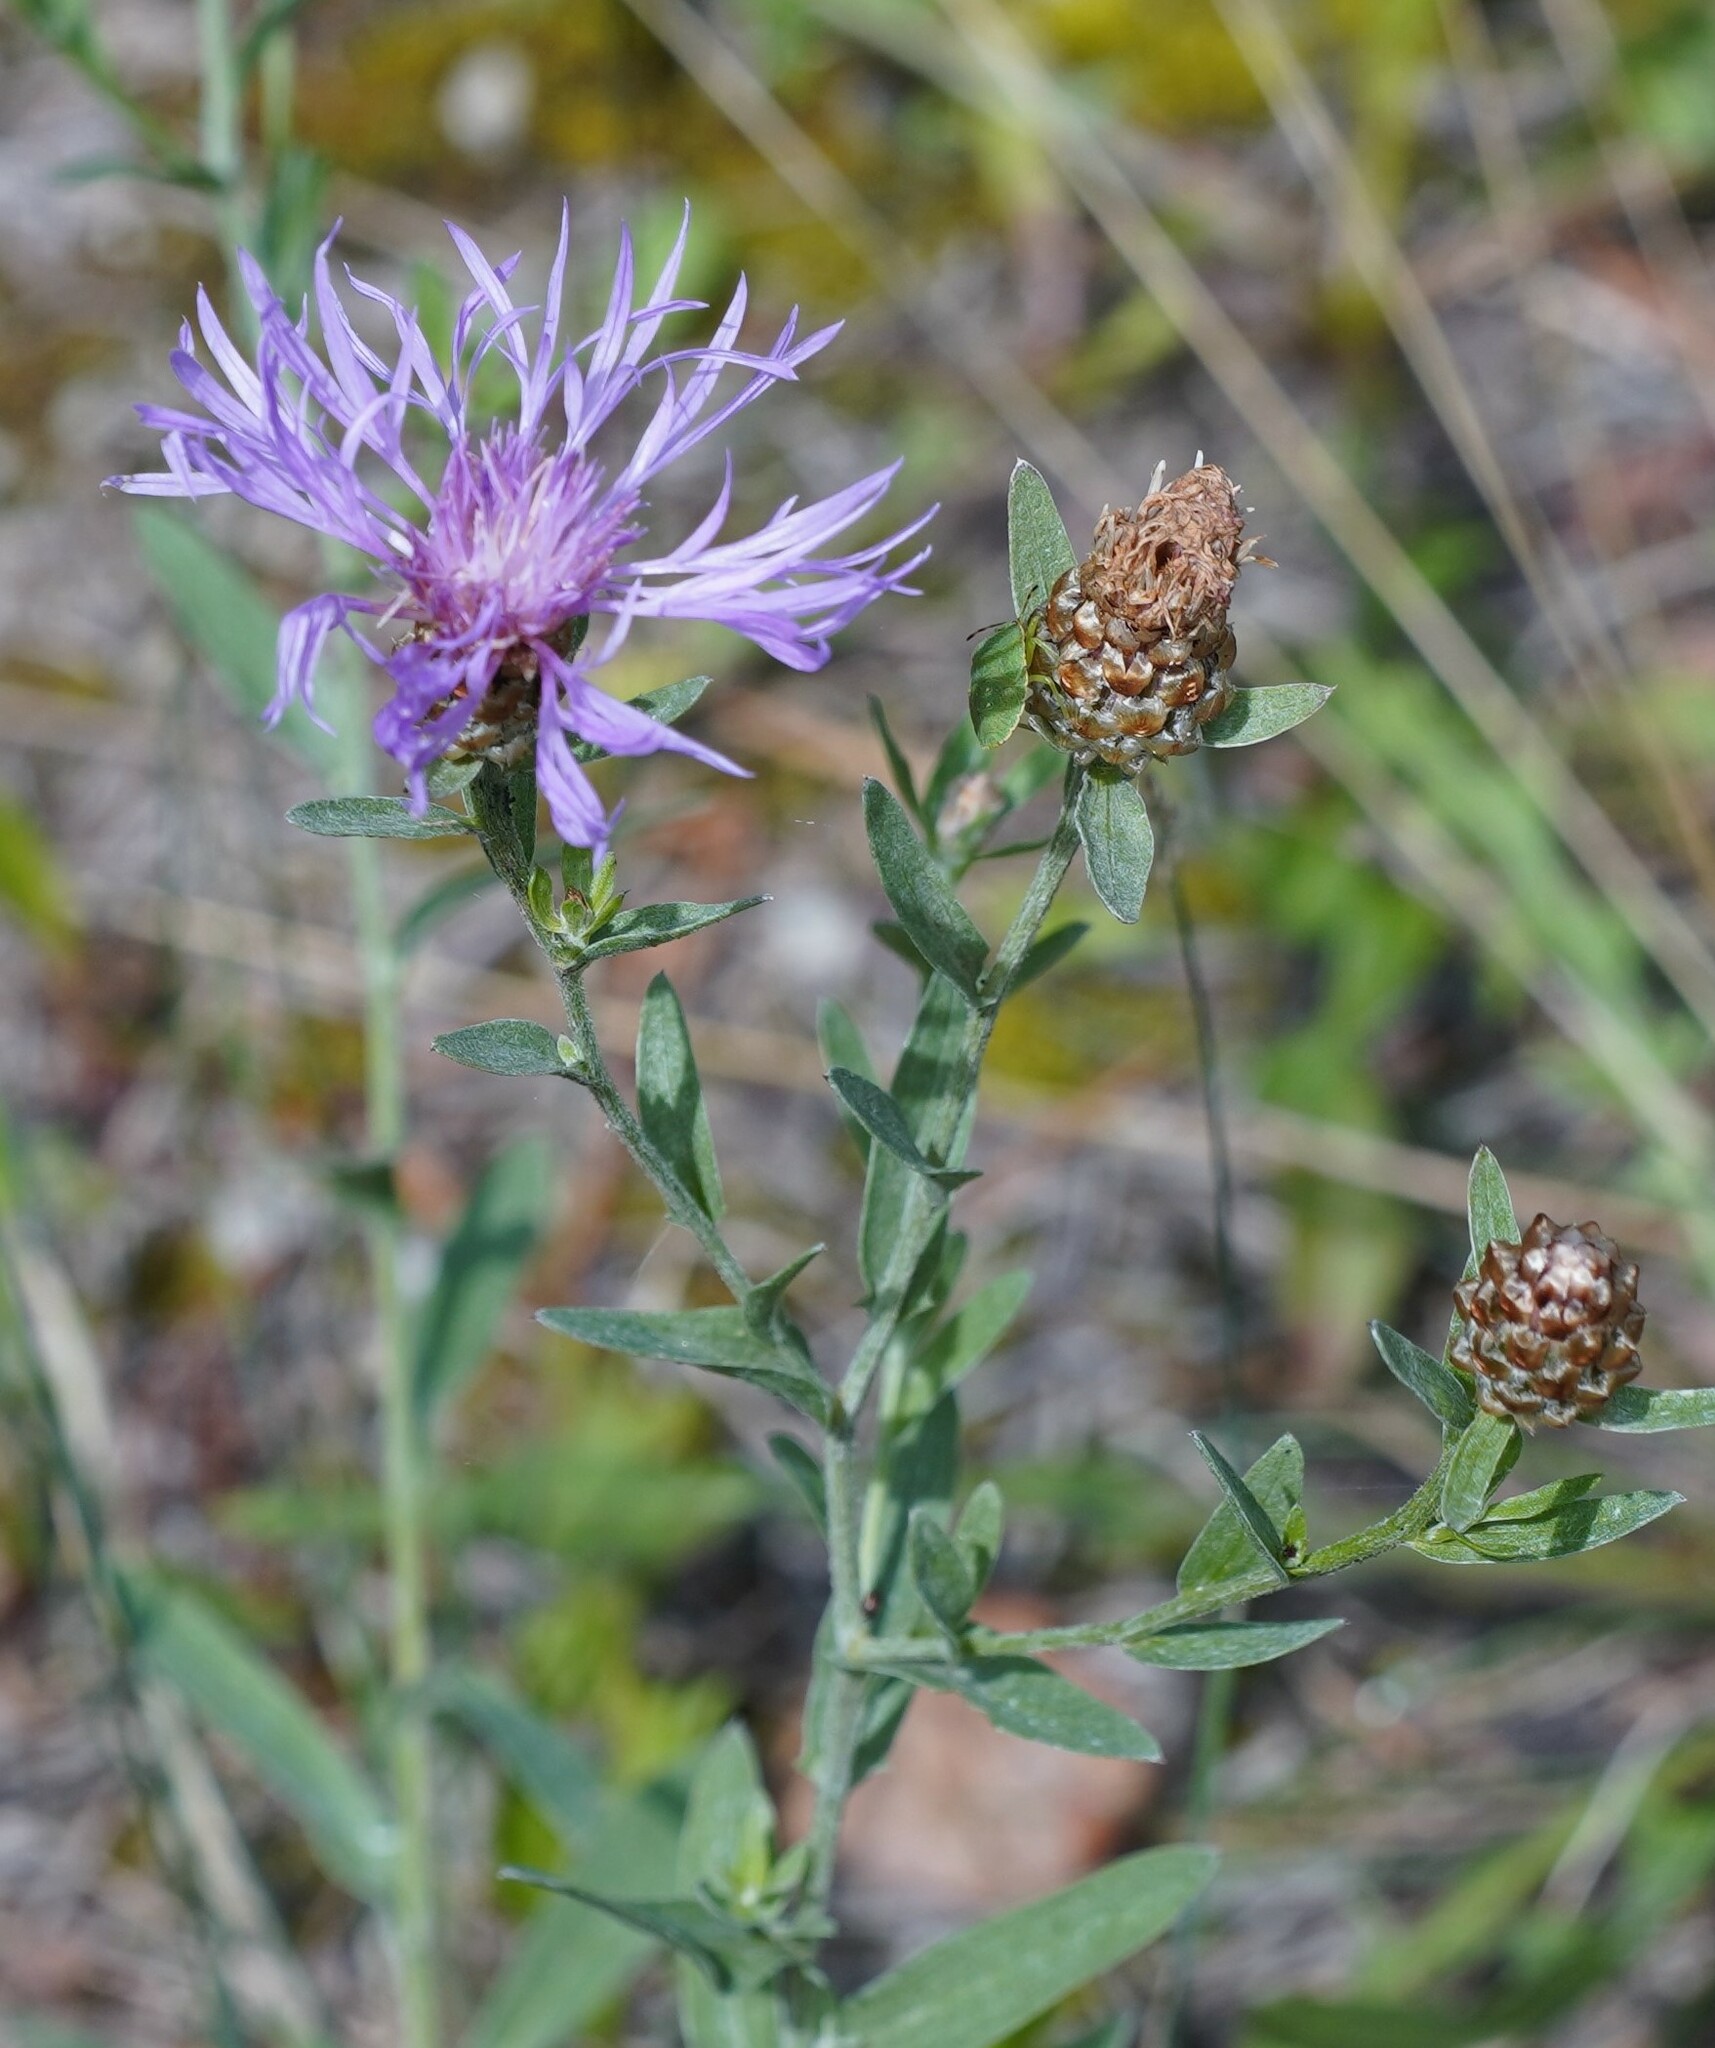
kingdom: Plantae
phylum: Tracheophyta
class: Magnoliopsida
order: Asterales
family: Asteraceae
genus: Centaurea
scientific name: Centaurea jacea
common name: Brown knapweed
